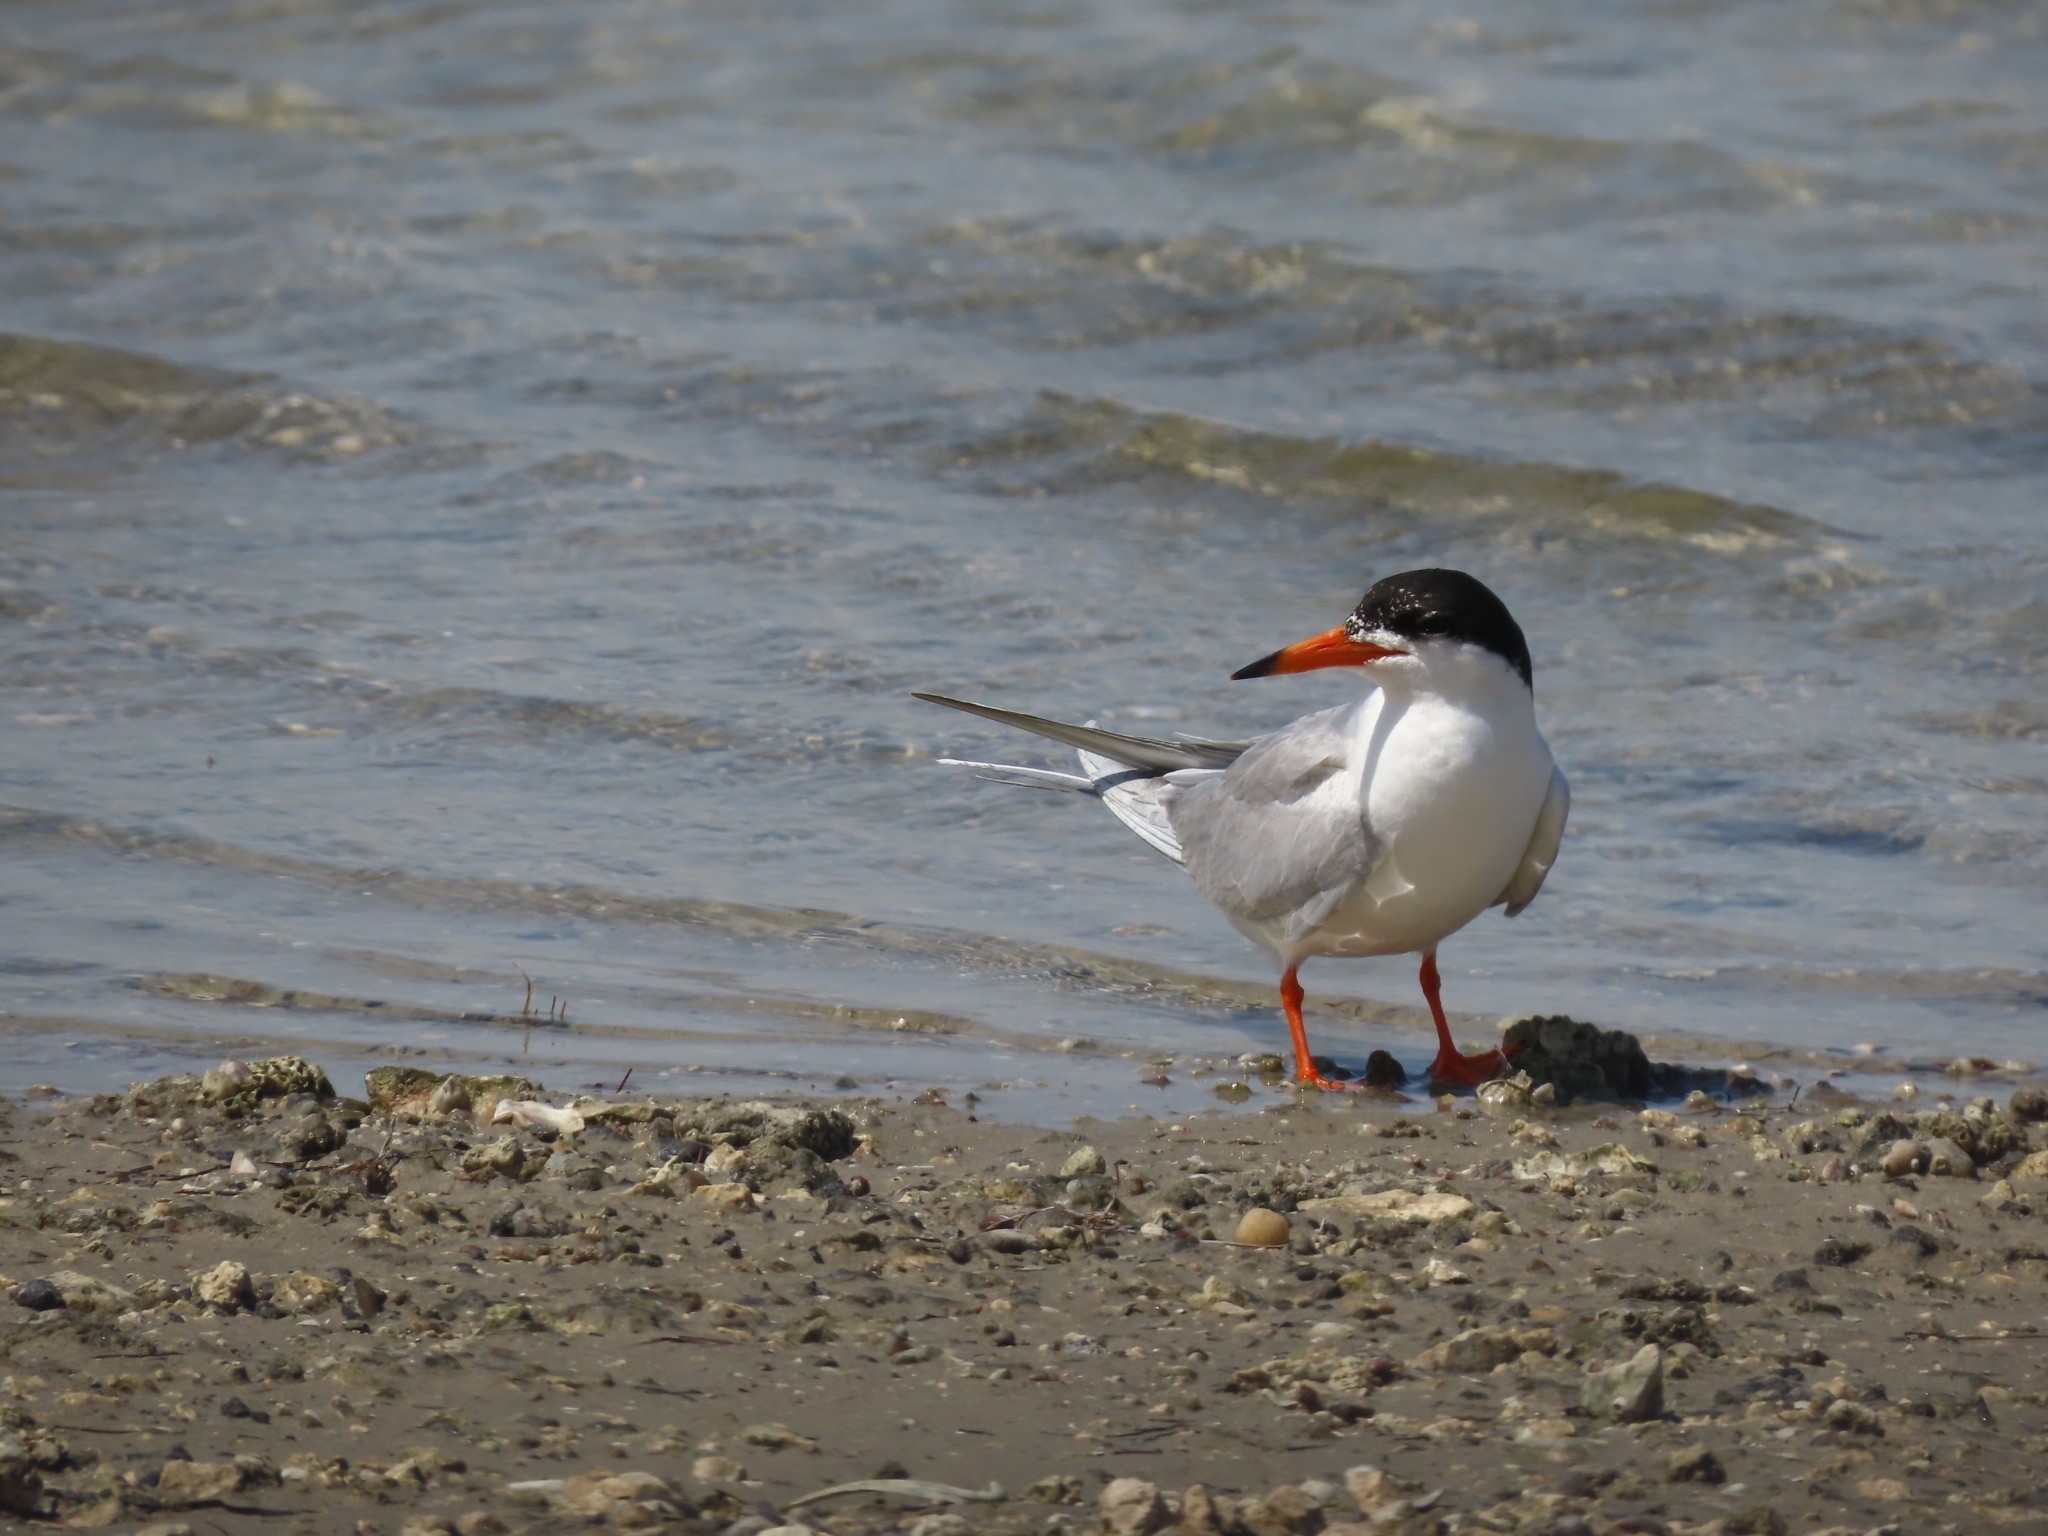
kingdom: Animalia
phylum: Chordata
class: Aves
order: Charadriiformes
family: Laridae
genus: Sterna
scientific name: Sterna forsteri
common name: Forster's tern
